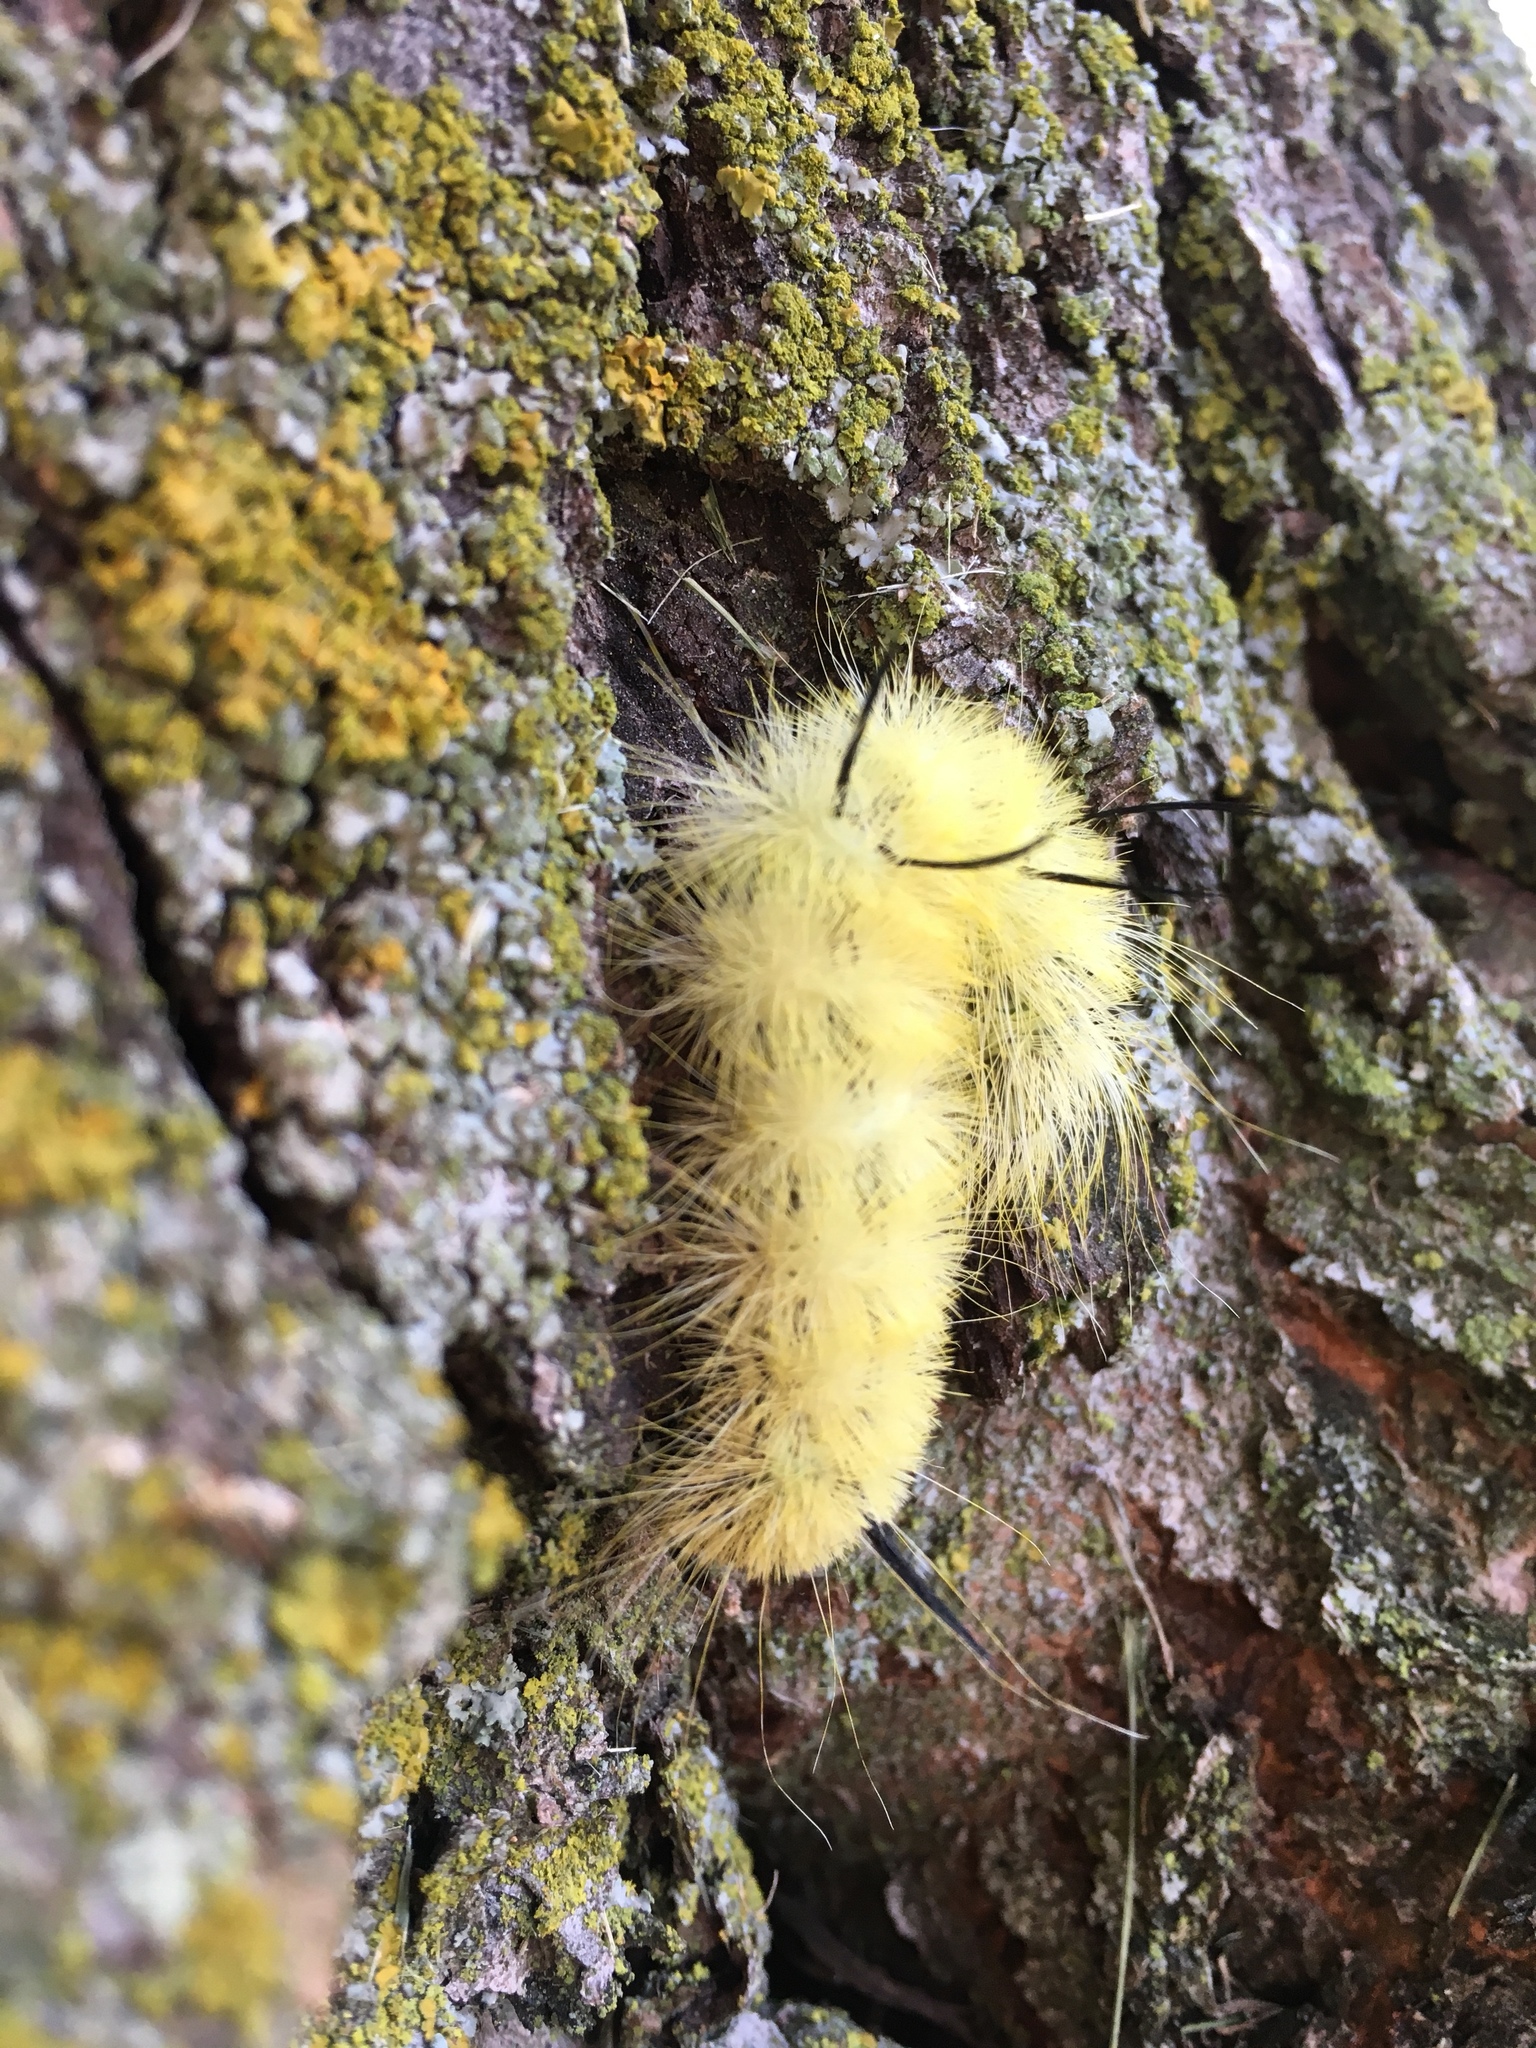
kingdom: Animalia
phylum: Arthropoda
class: Insecta
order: Lepidoptera
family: Noctuidae
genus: Acronicta
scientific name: Acronicta americana
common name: American dagger
